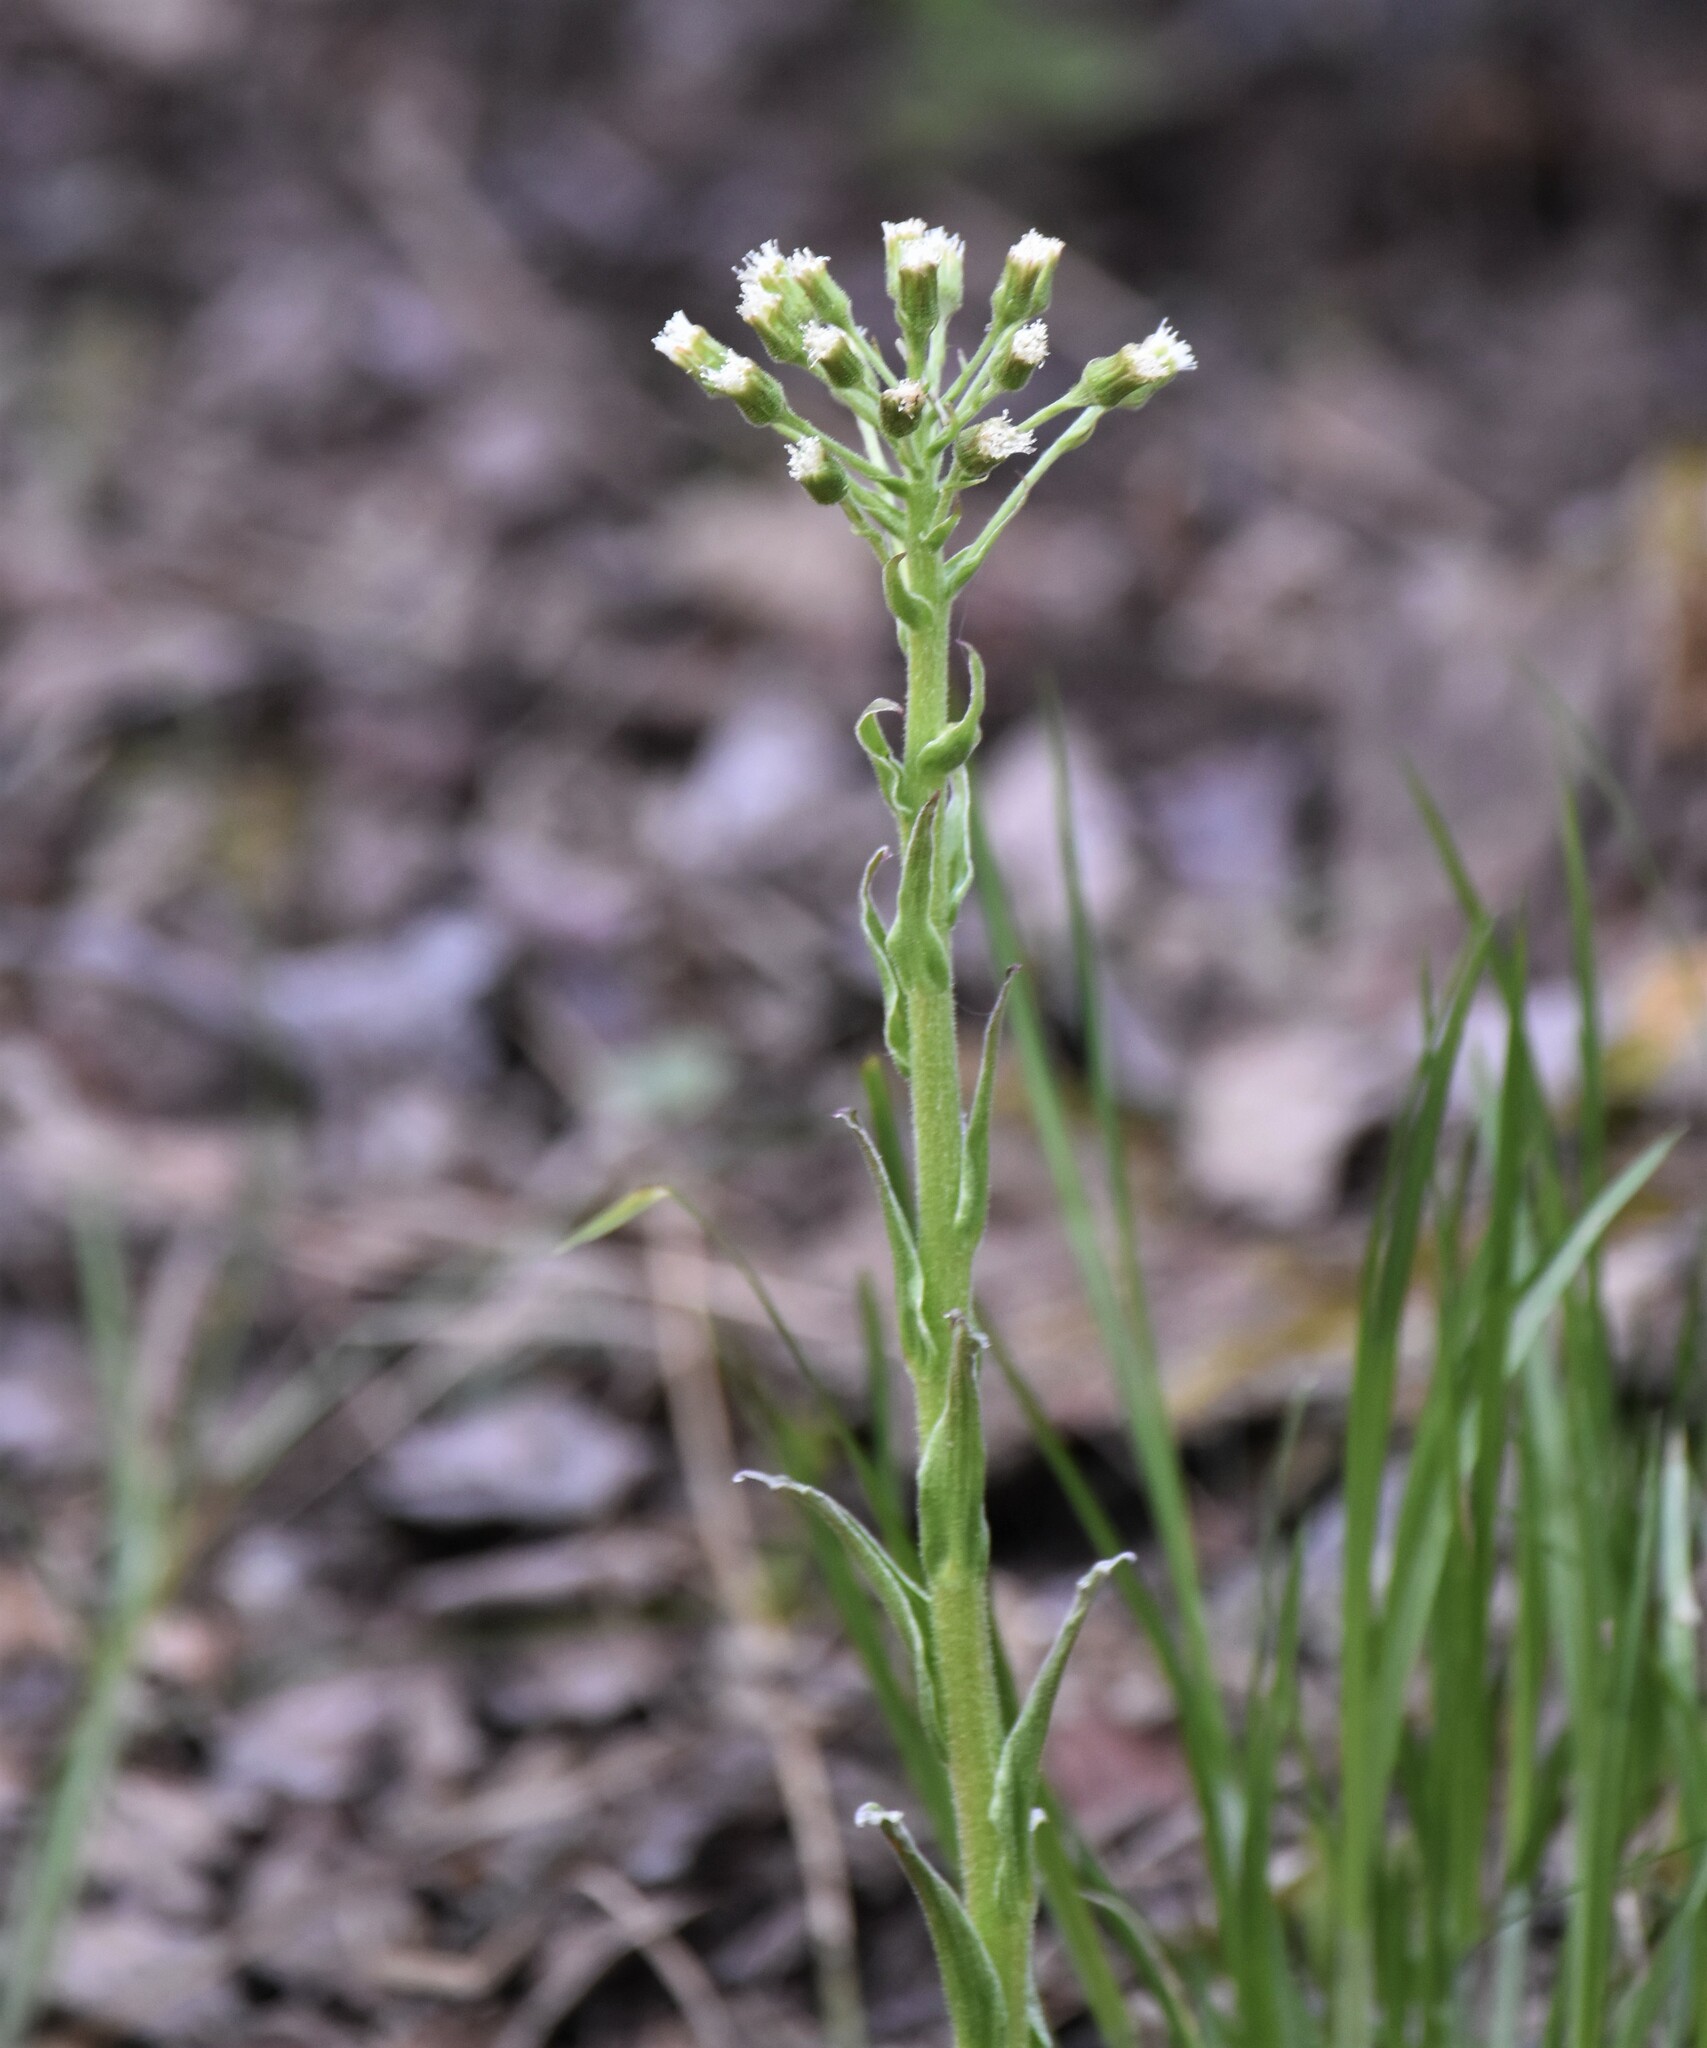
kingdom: Plantae
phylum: Tracheophyta
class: Magnoliopsida
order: Asterales
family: Asteraceae
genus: Petasites
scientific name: Petasites frigidus
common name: Arctic butterbur
